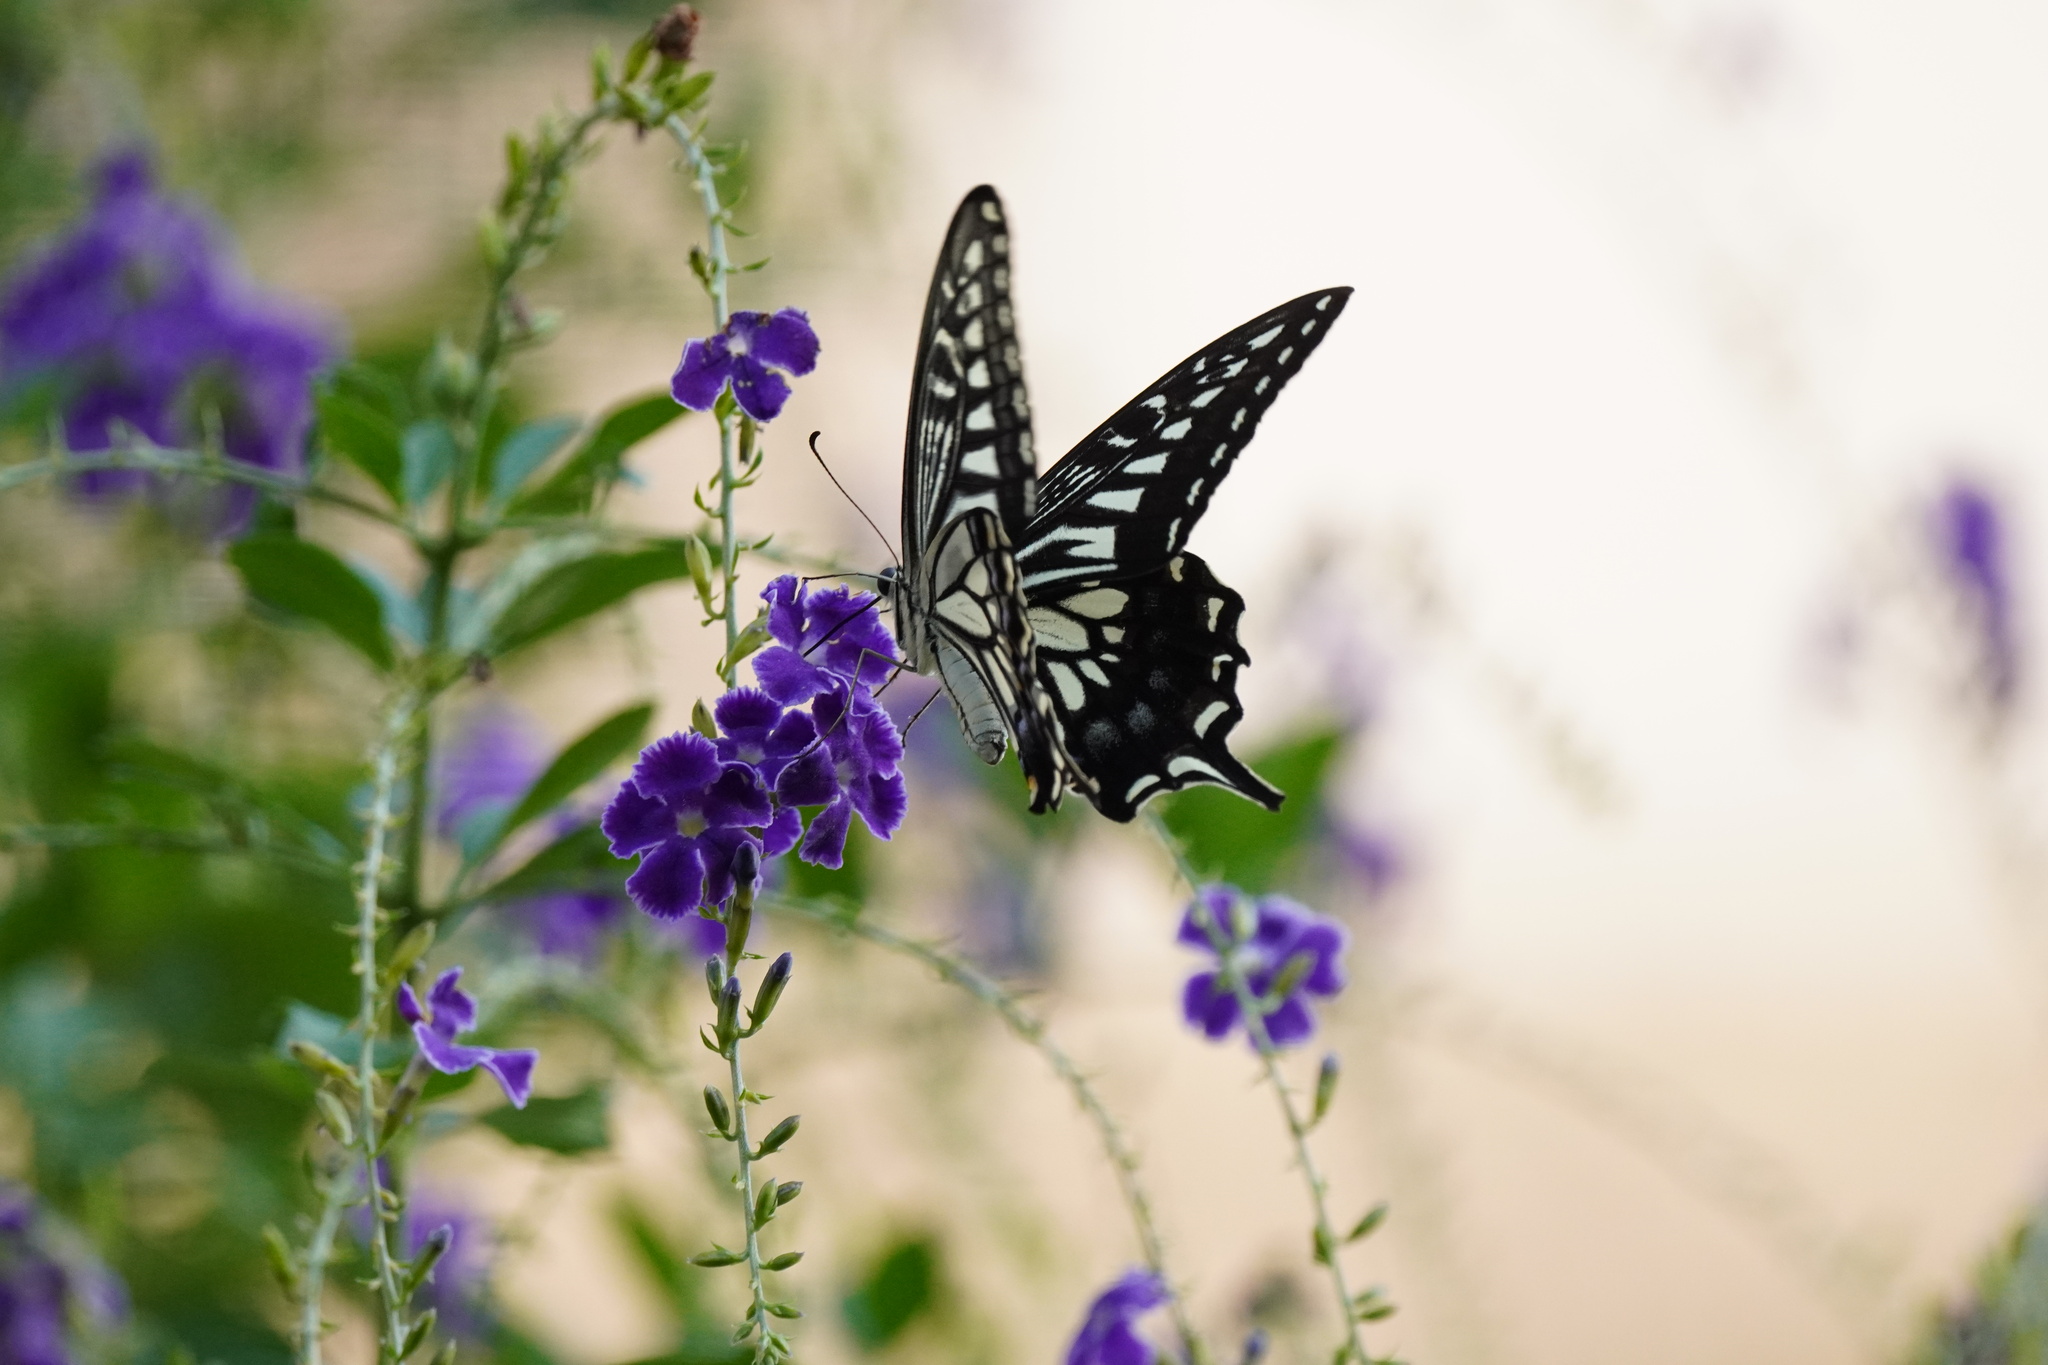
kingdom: Animalia
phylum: Arthropoda
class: Insecta
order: Lepidoptera
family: Papilionidae
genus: Papilio
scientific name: Papilio xuthus
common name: Asian swallowtail
